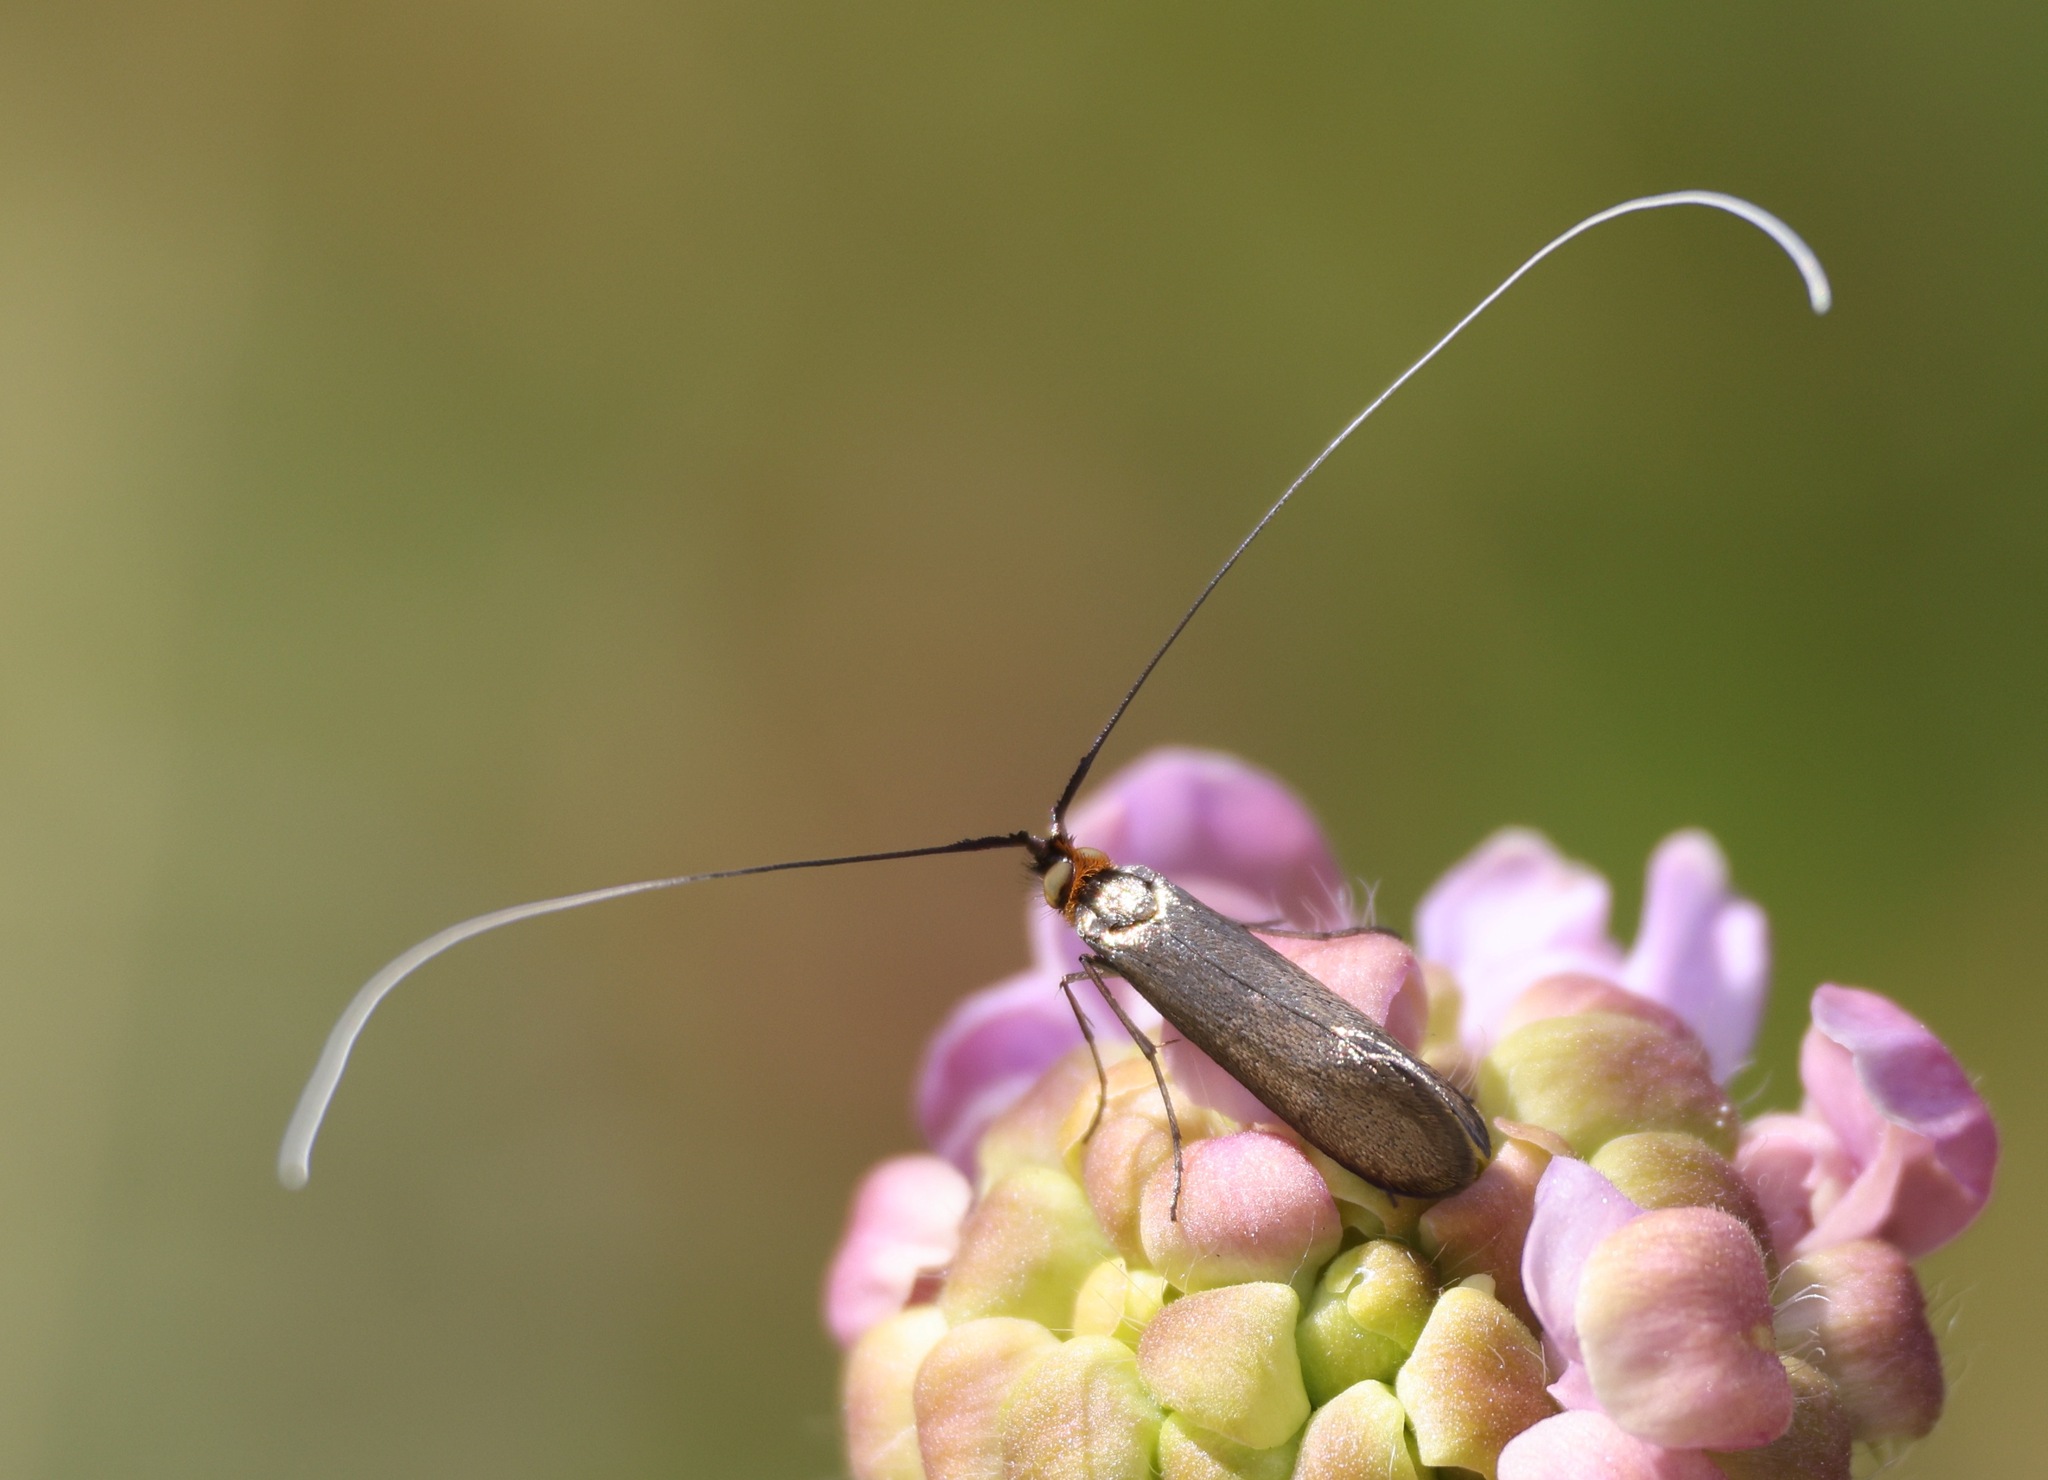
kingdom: Animalia
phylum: Arthropoda
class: Insecta
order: Lepidoptera
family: Adelidae
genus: Nemophora
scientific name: Nemophora metallica
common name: Brassy long-horn
